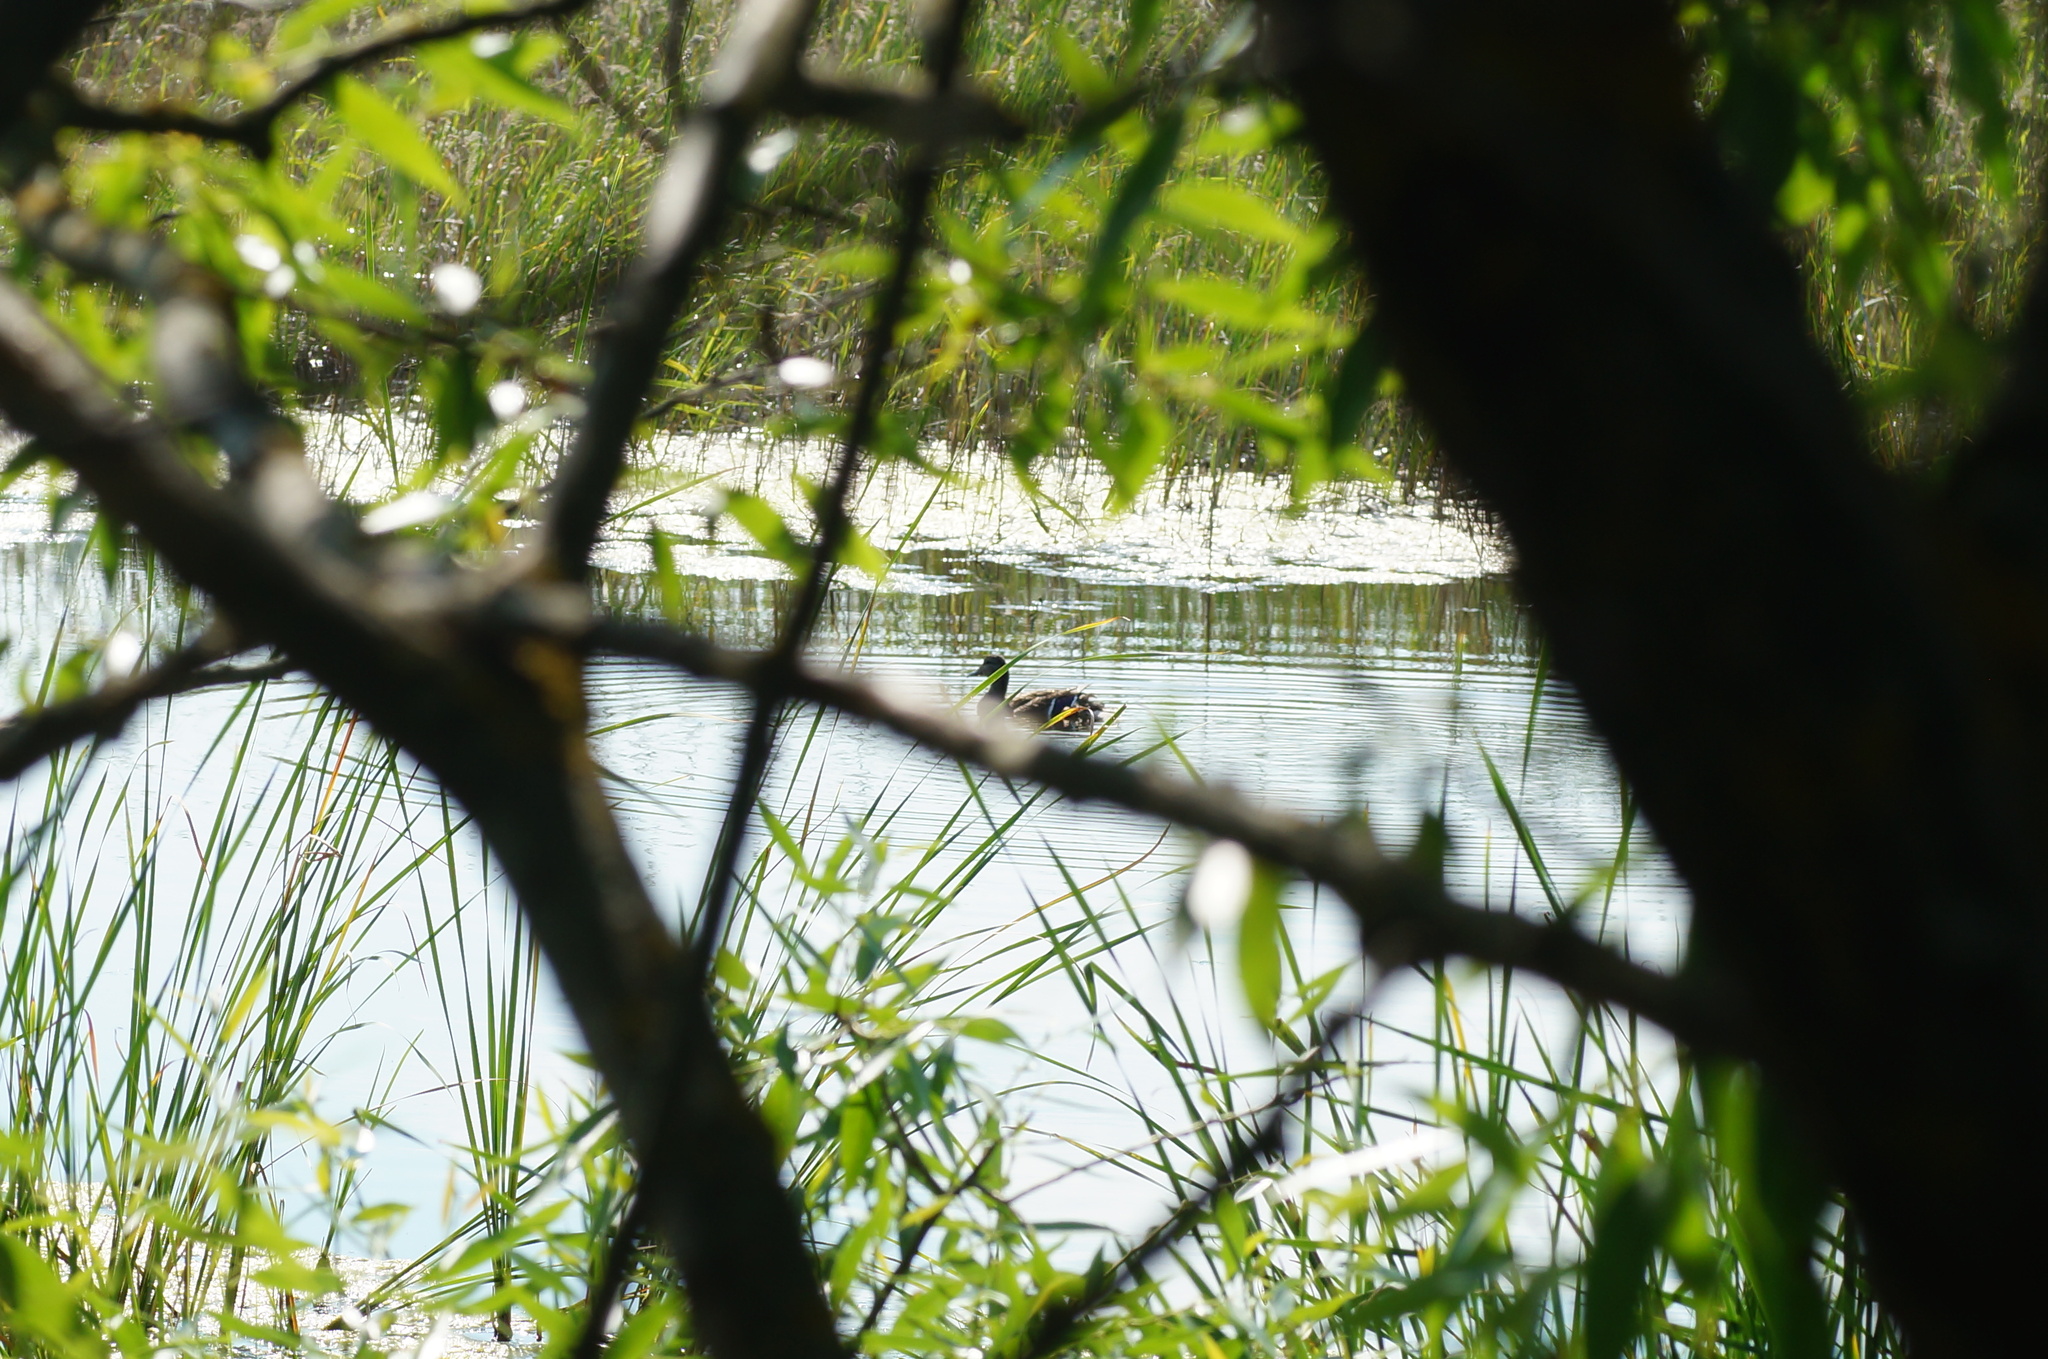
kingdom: Animalia
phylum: Chordata
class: Aves
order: Anseriformes
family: Anatidae
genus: Anas
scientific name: Anas platyrhynchos
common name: Mallard
